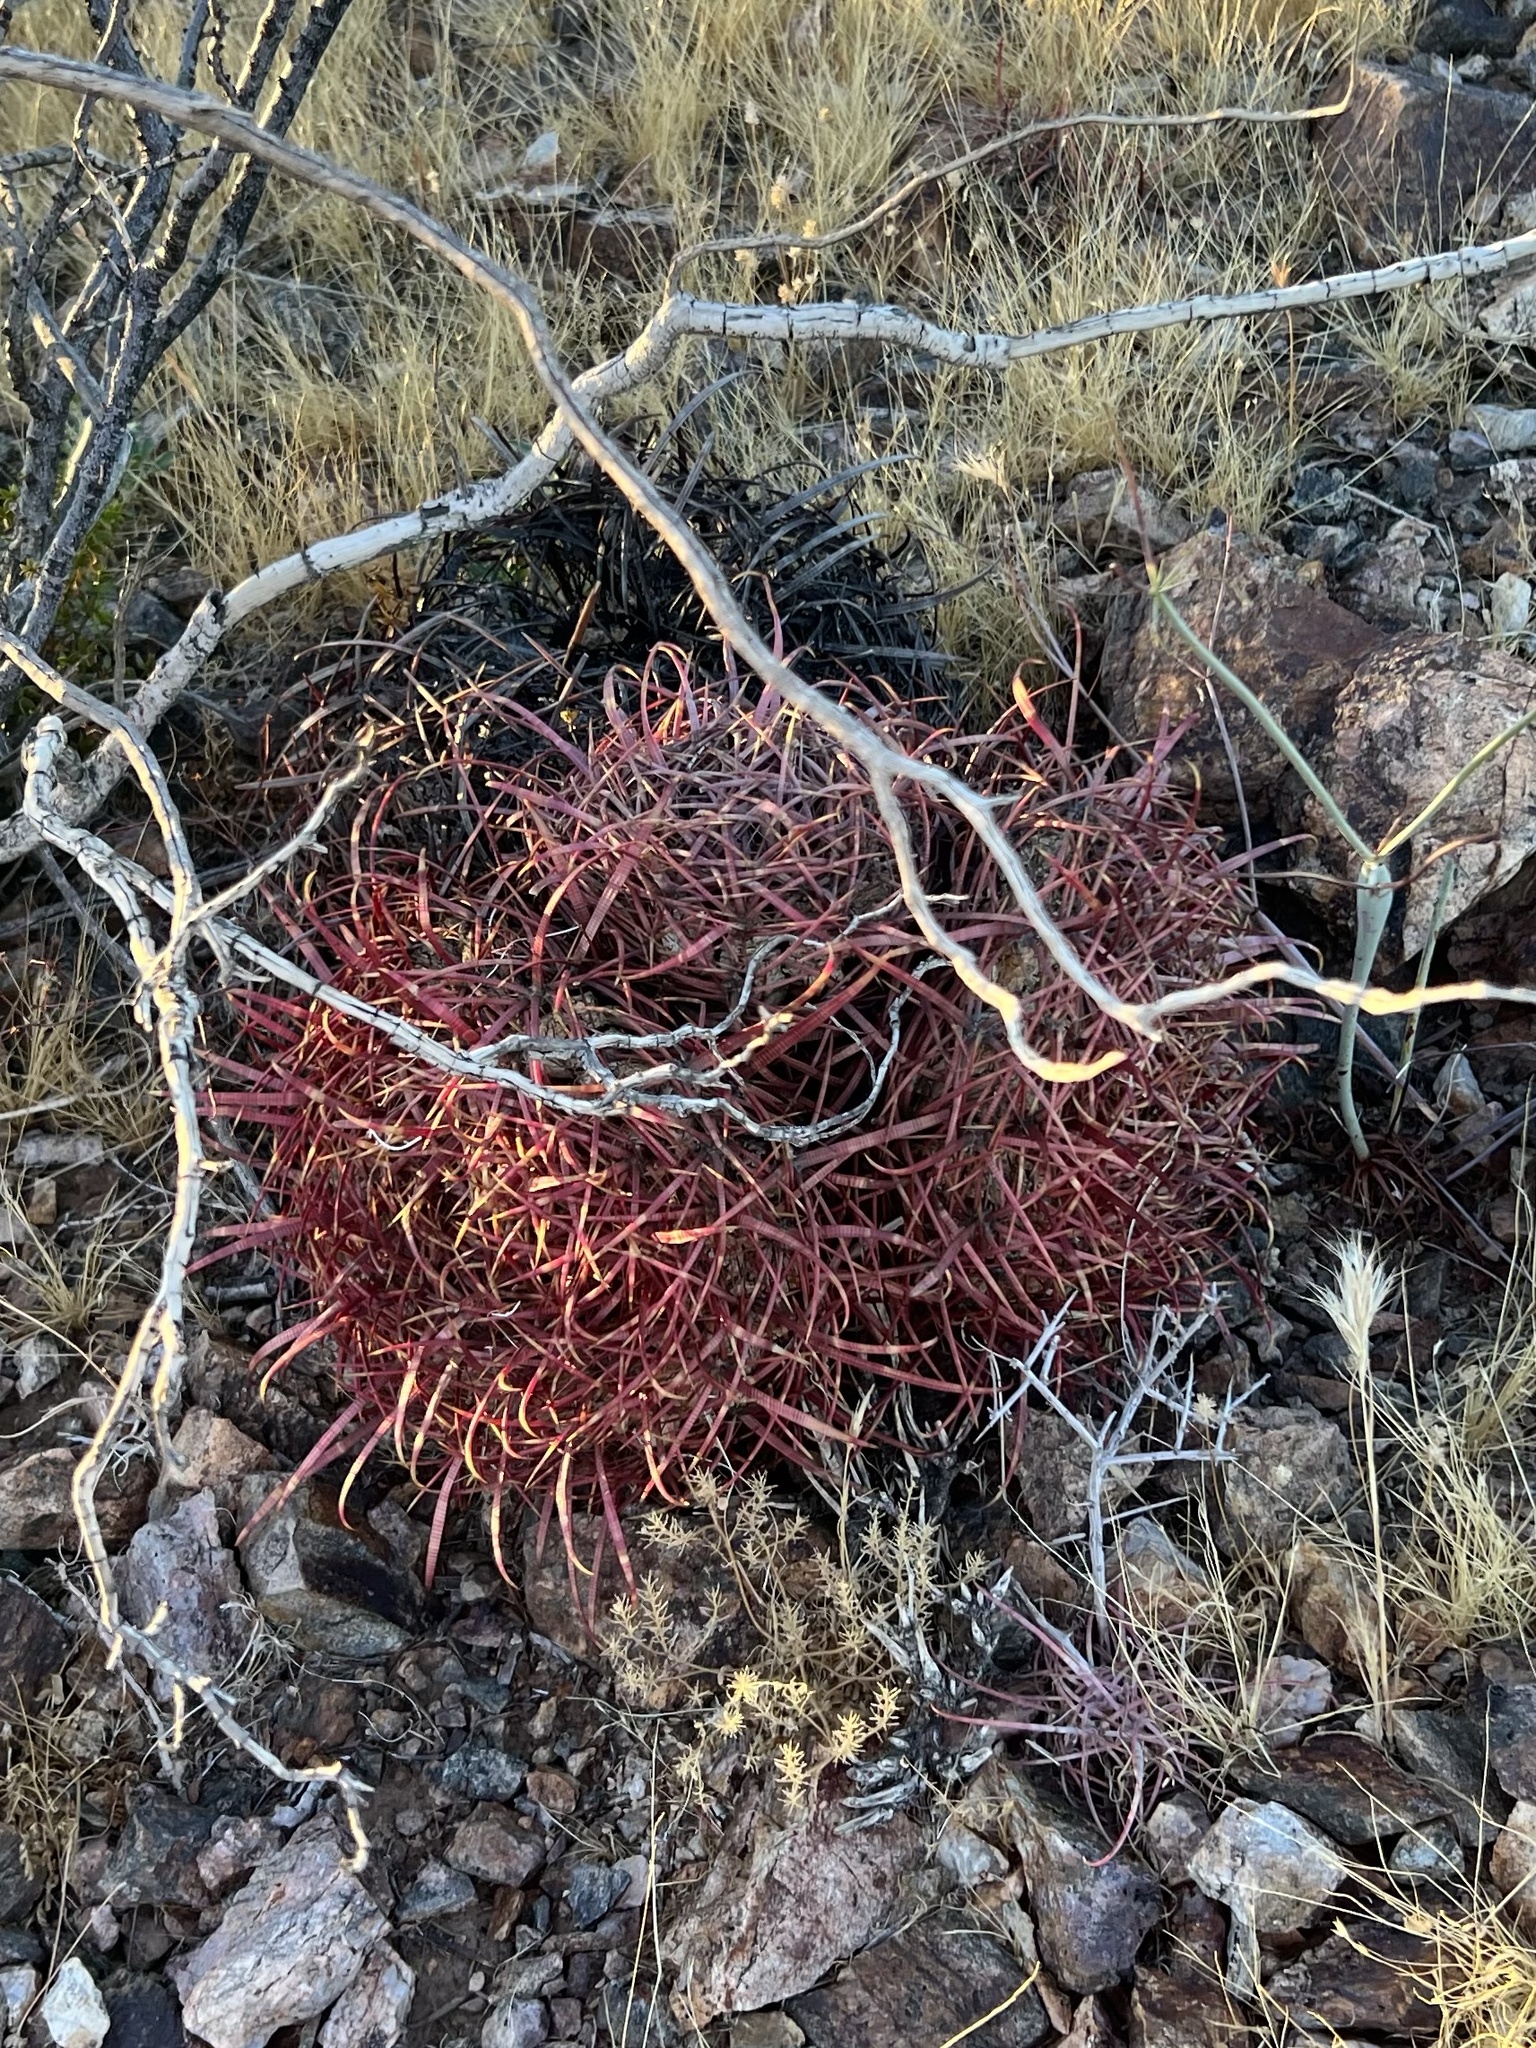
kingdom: Plantae
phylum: Tracheophyta
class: Magnoliopsida
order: Caryophyllales
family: Cactaceae
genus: Ferocactus
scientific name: Ferocactus cylindraceus
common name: California barrel cactus
